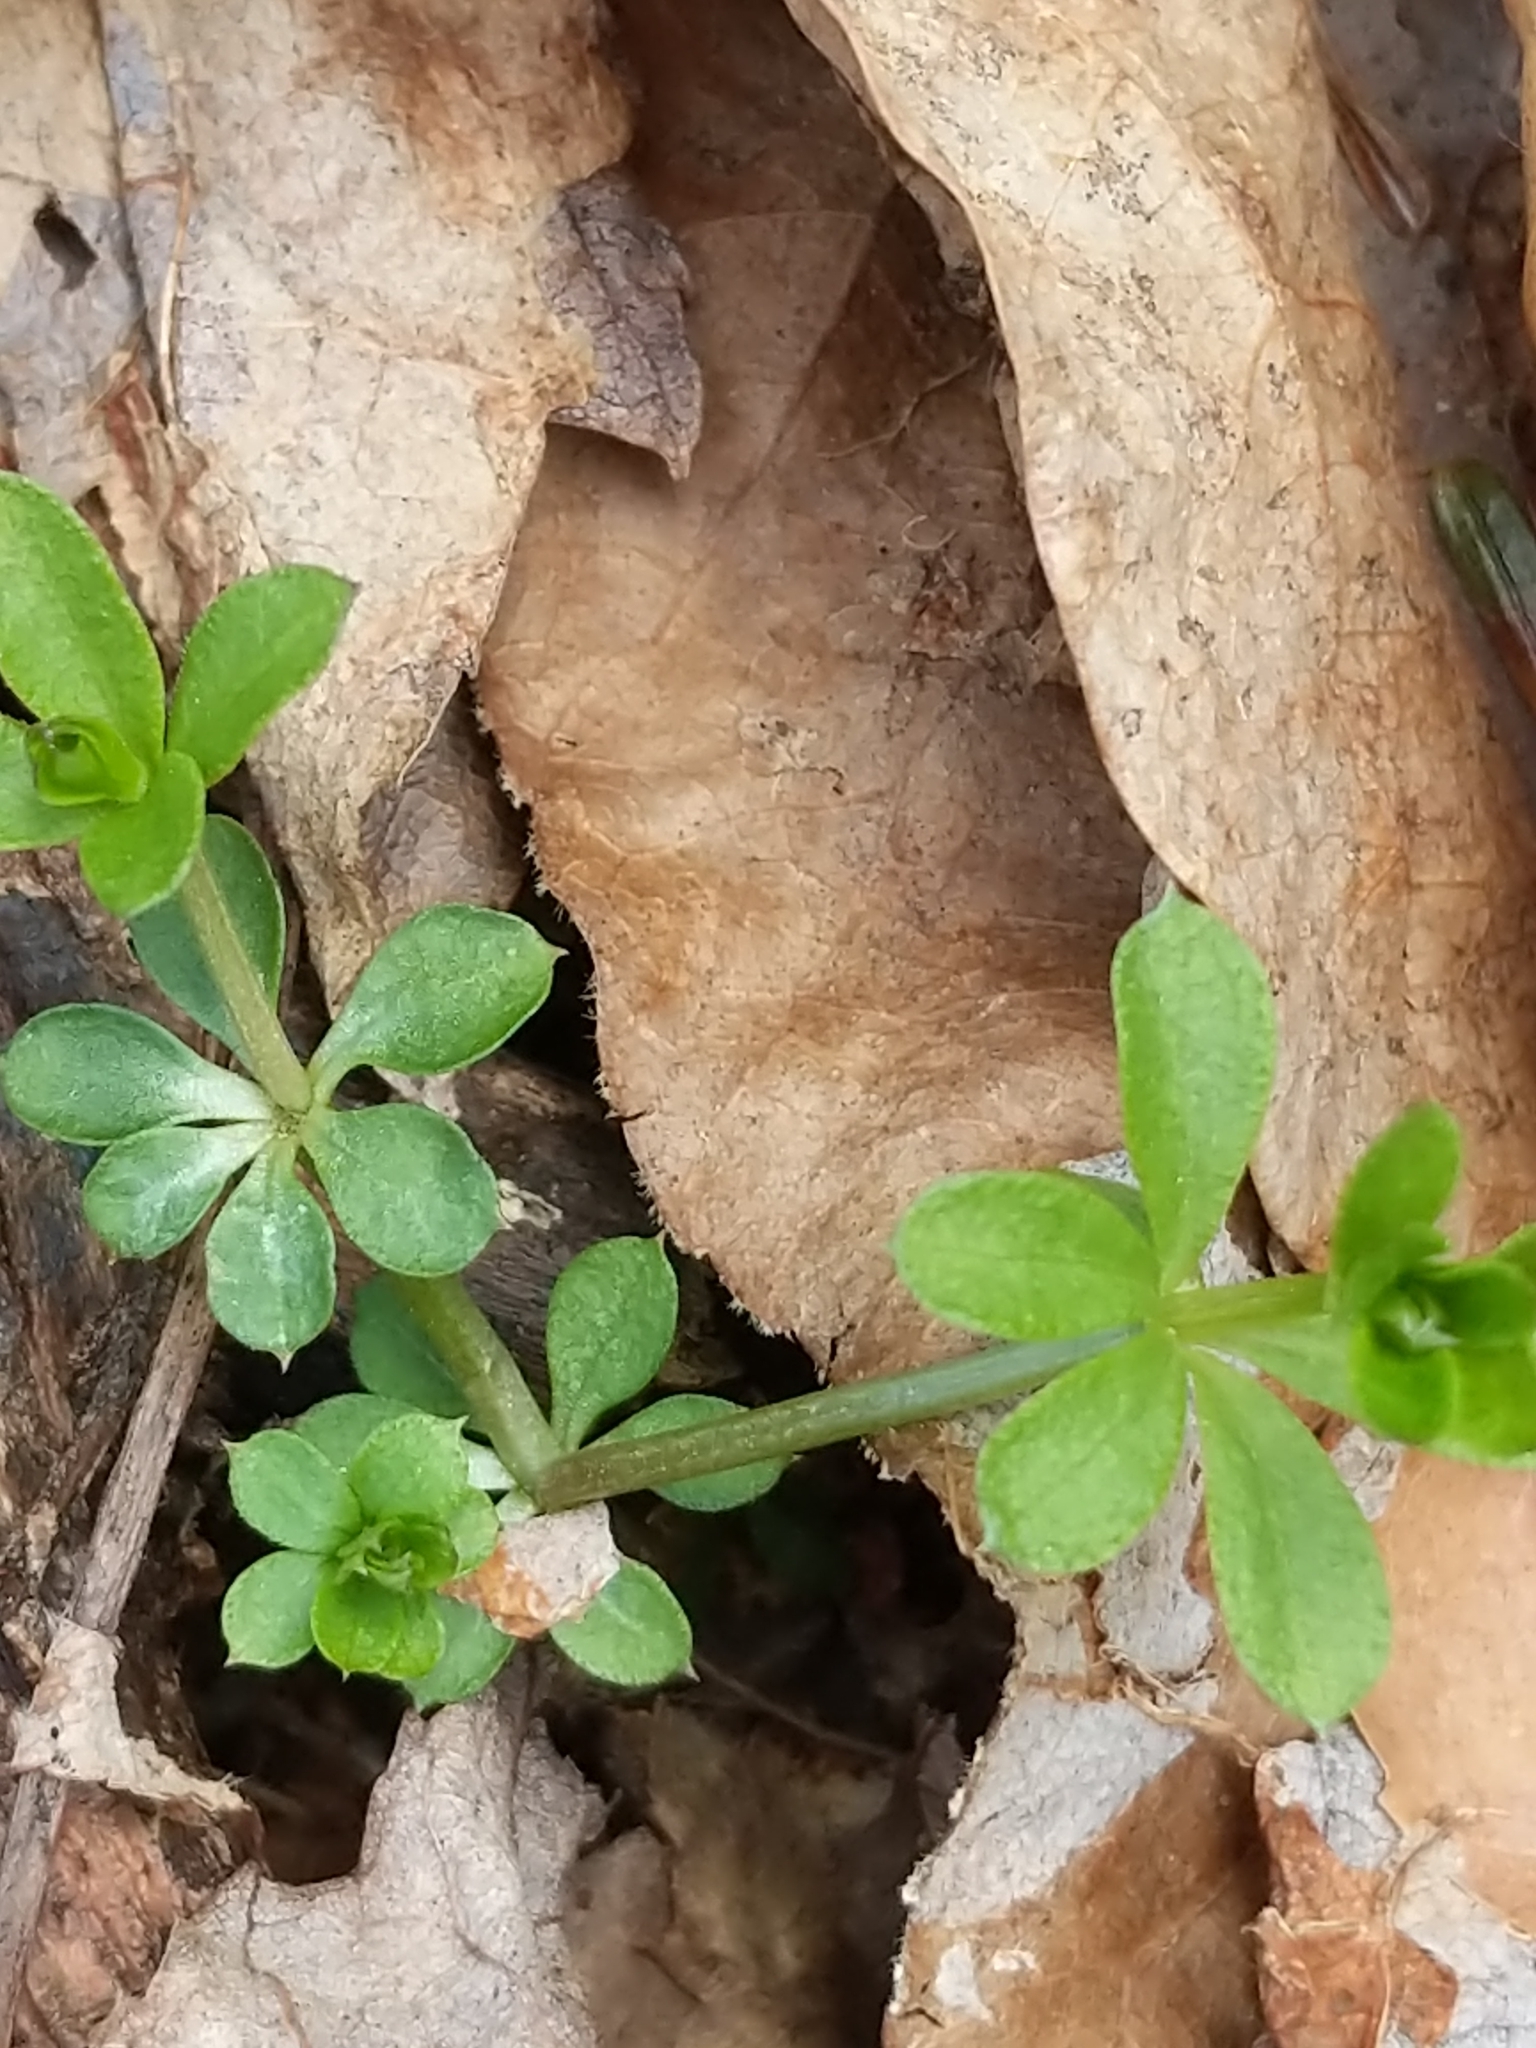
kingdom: Plantae
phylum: Tracheophyta
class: Magnoliopsida
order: Gentianales
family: Rubiaceae
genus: Galium
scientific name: Galium triflorum
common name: Fragrant bedstraw
